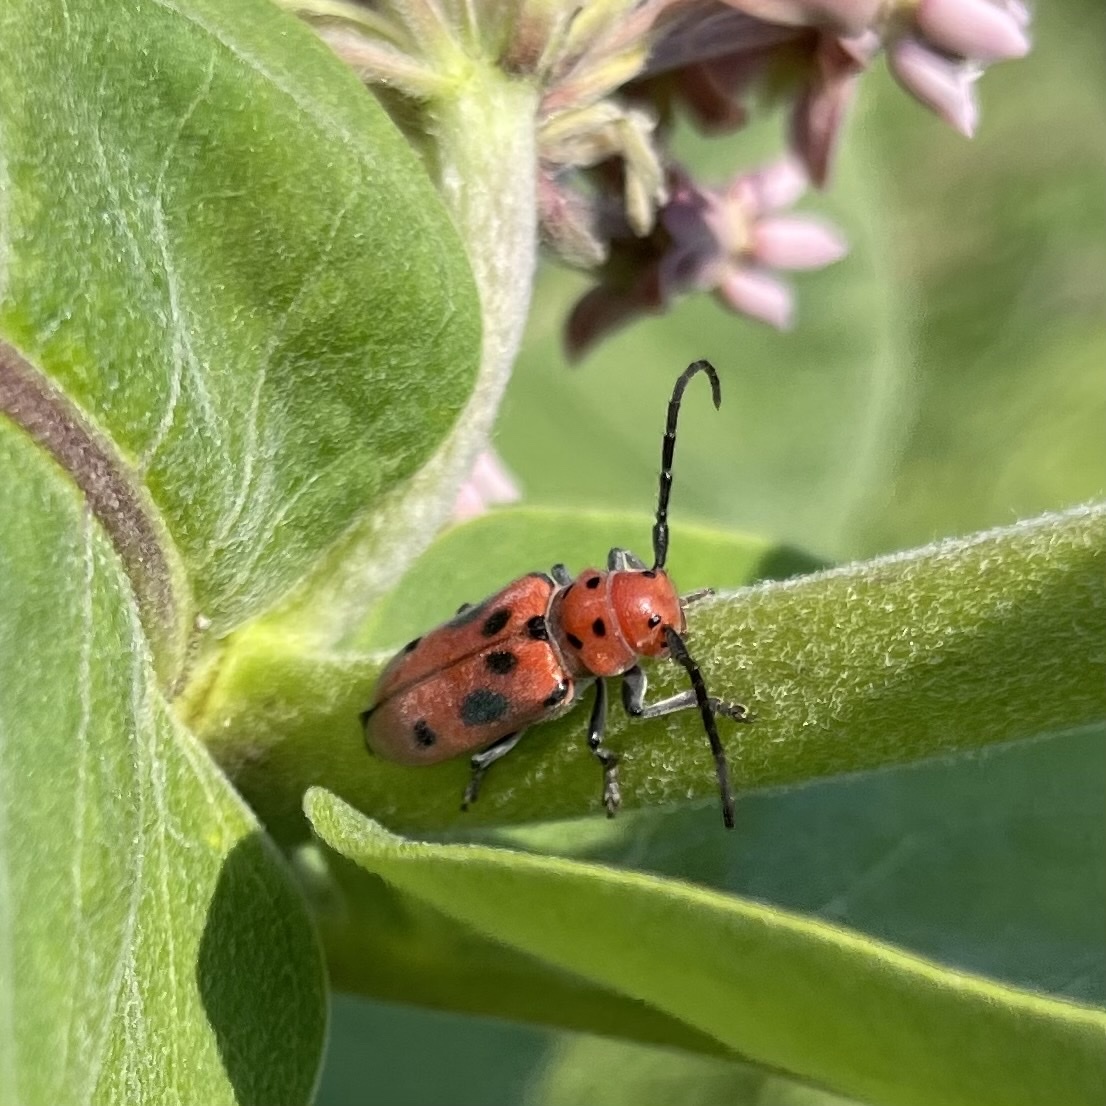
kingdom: Animalia
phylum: Arthropoda
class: Insecta
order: Coleoptera
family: Cerambycidae
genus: Tetraopes
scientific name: Tetraopes tetrophthalmus
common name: Red milkweed beetle
